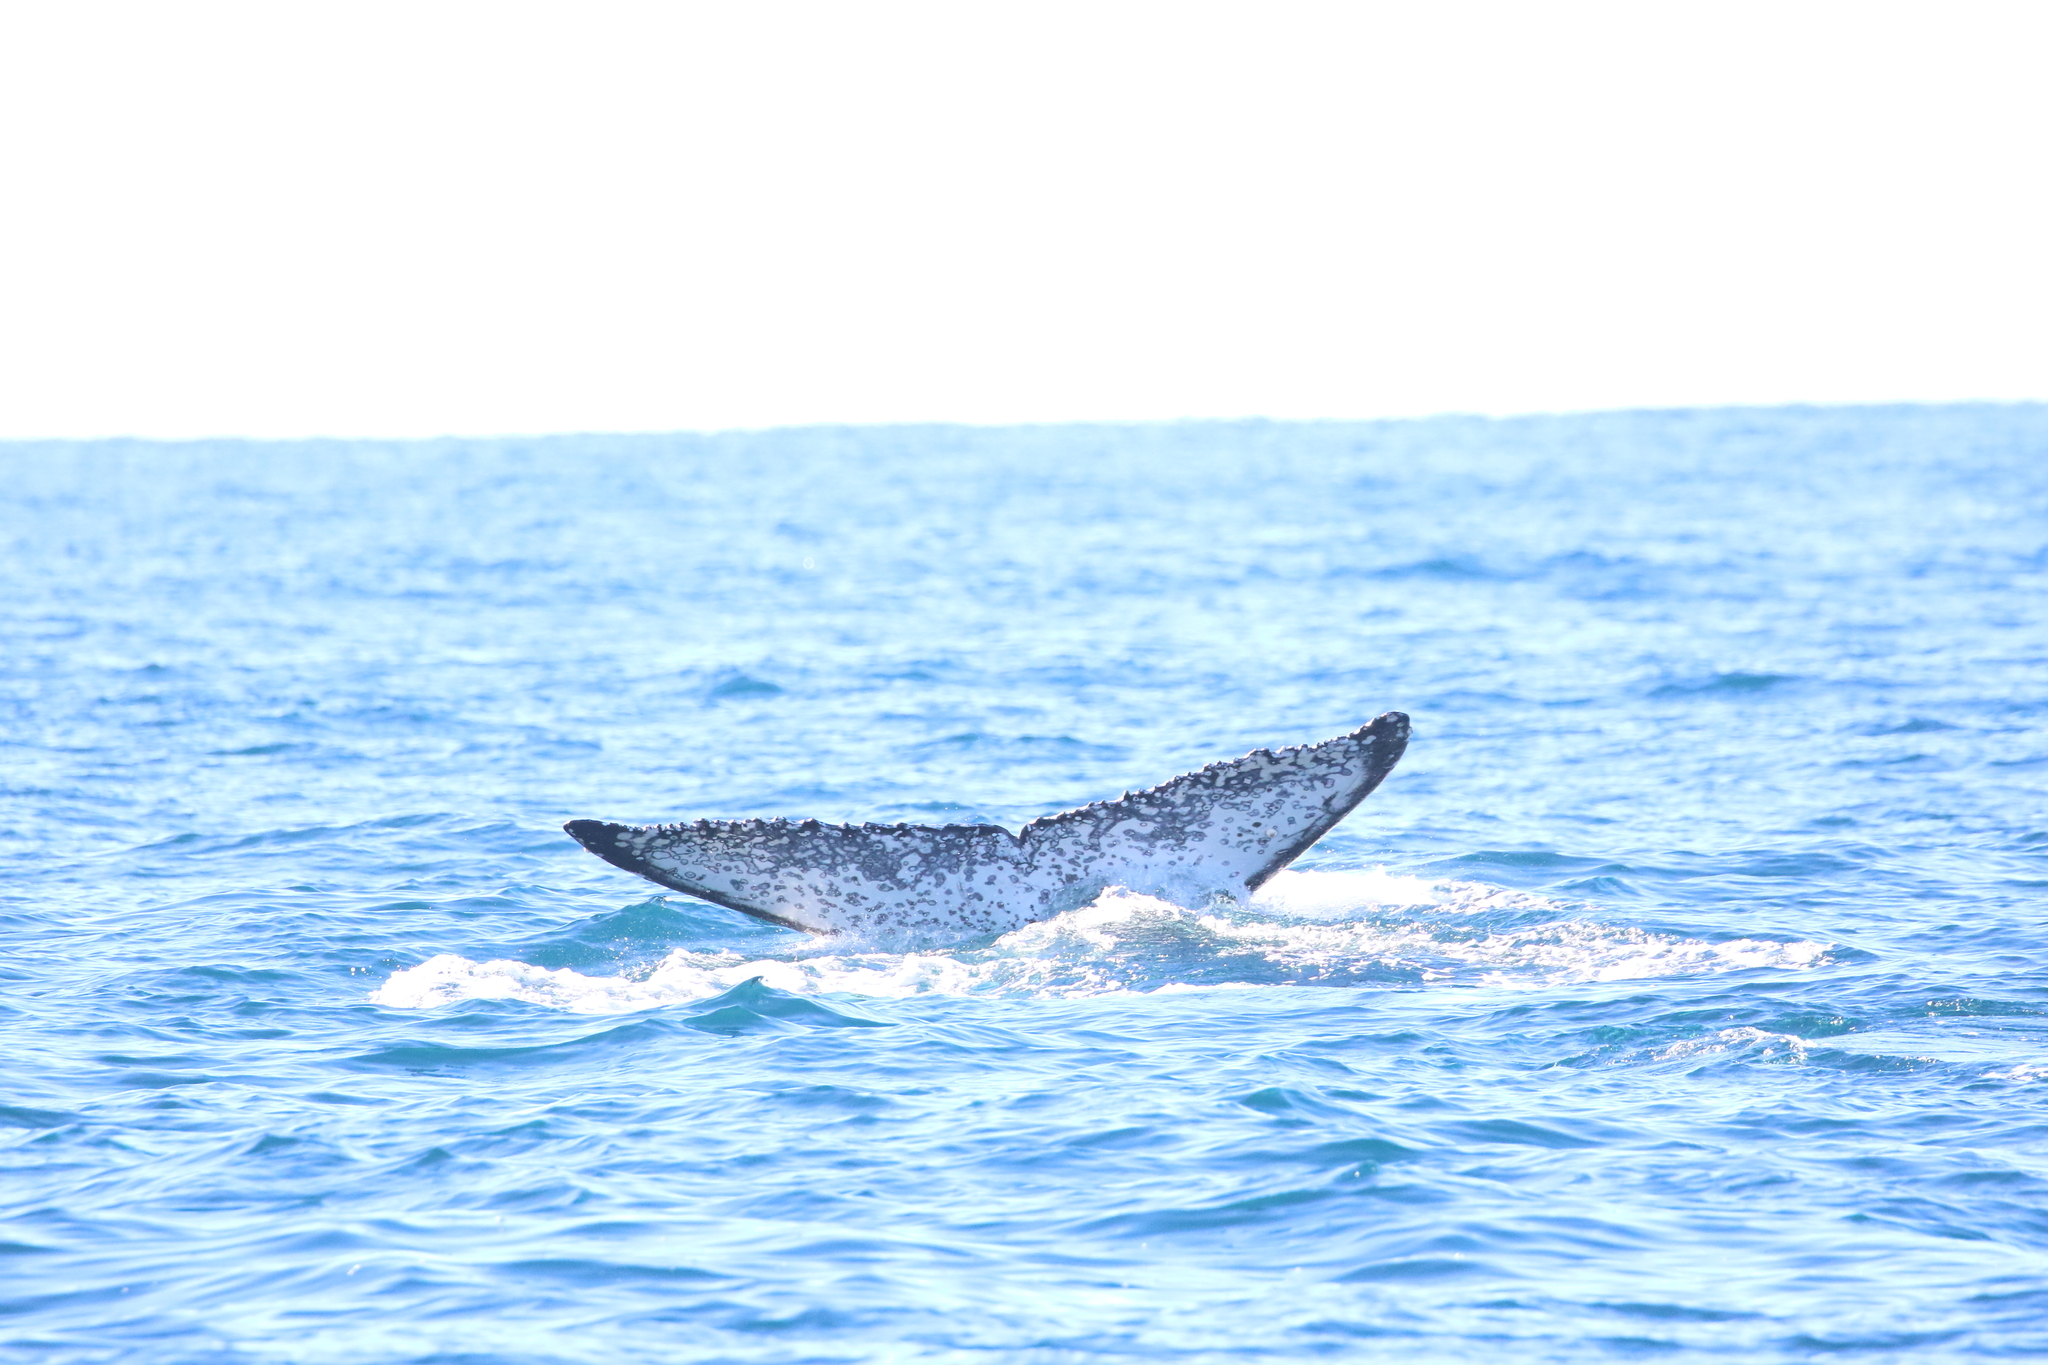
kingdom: Animalia
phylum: Chordata
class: Mammalia
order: Cetacea
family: Balaenopteridae
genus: Megaptera
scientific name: Megaptera novaeangliae
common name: Humpback whale
